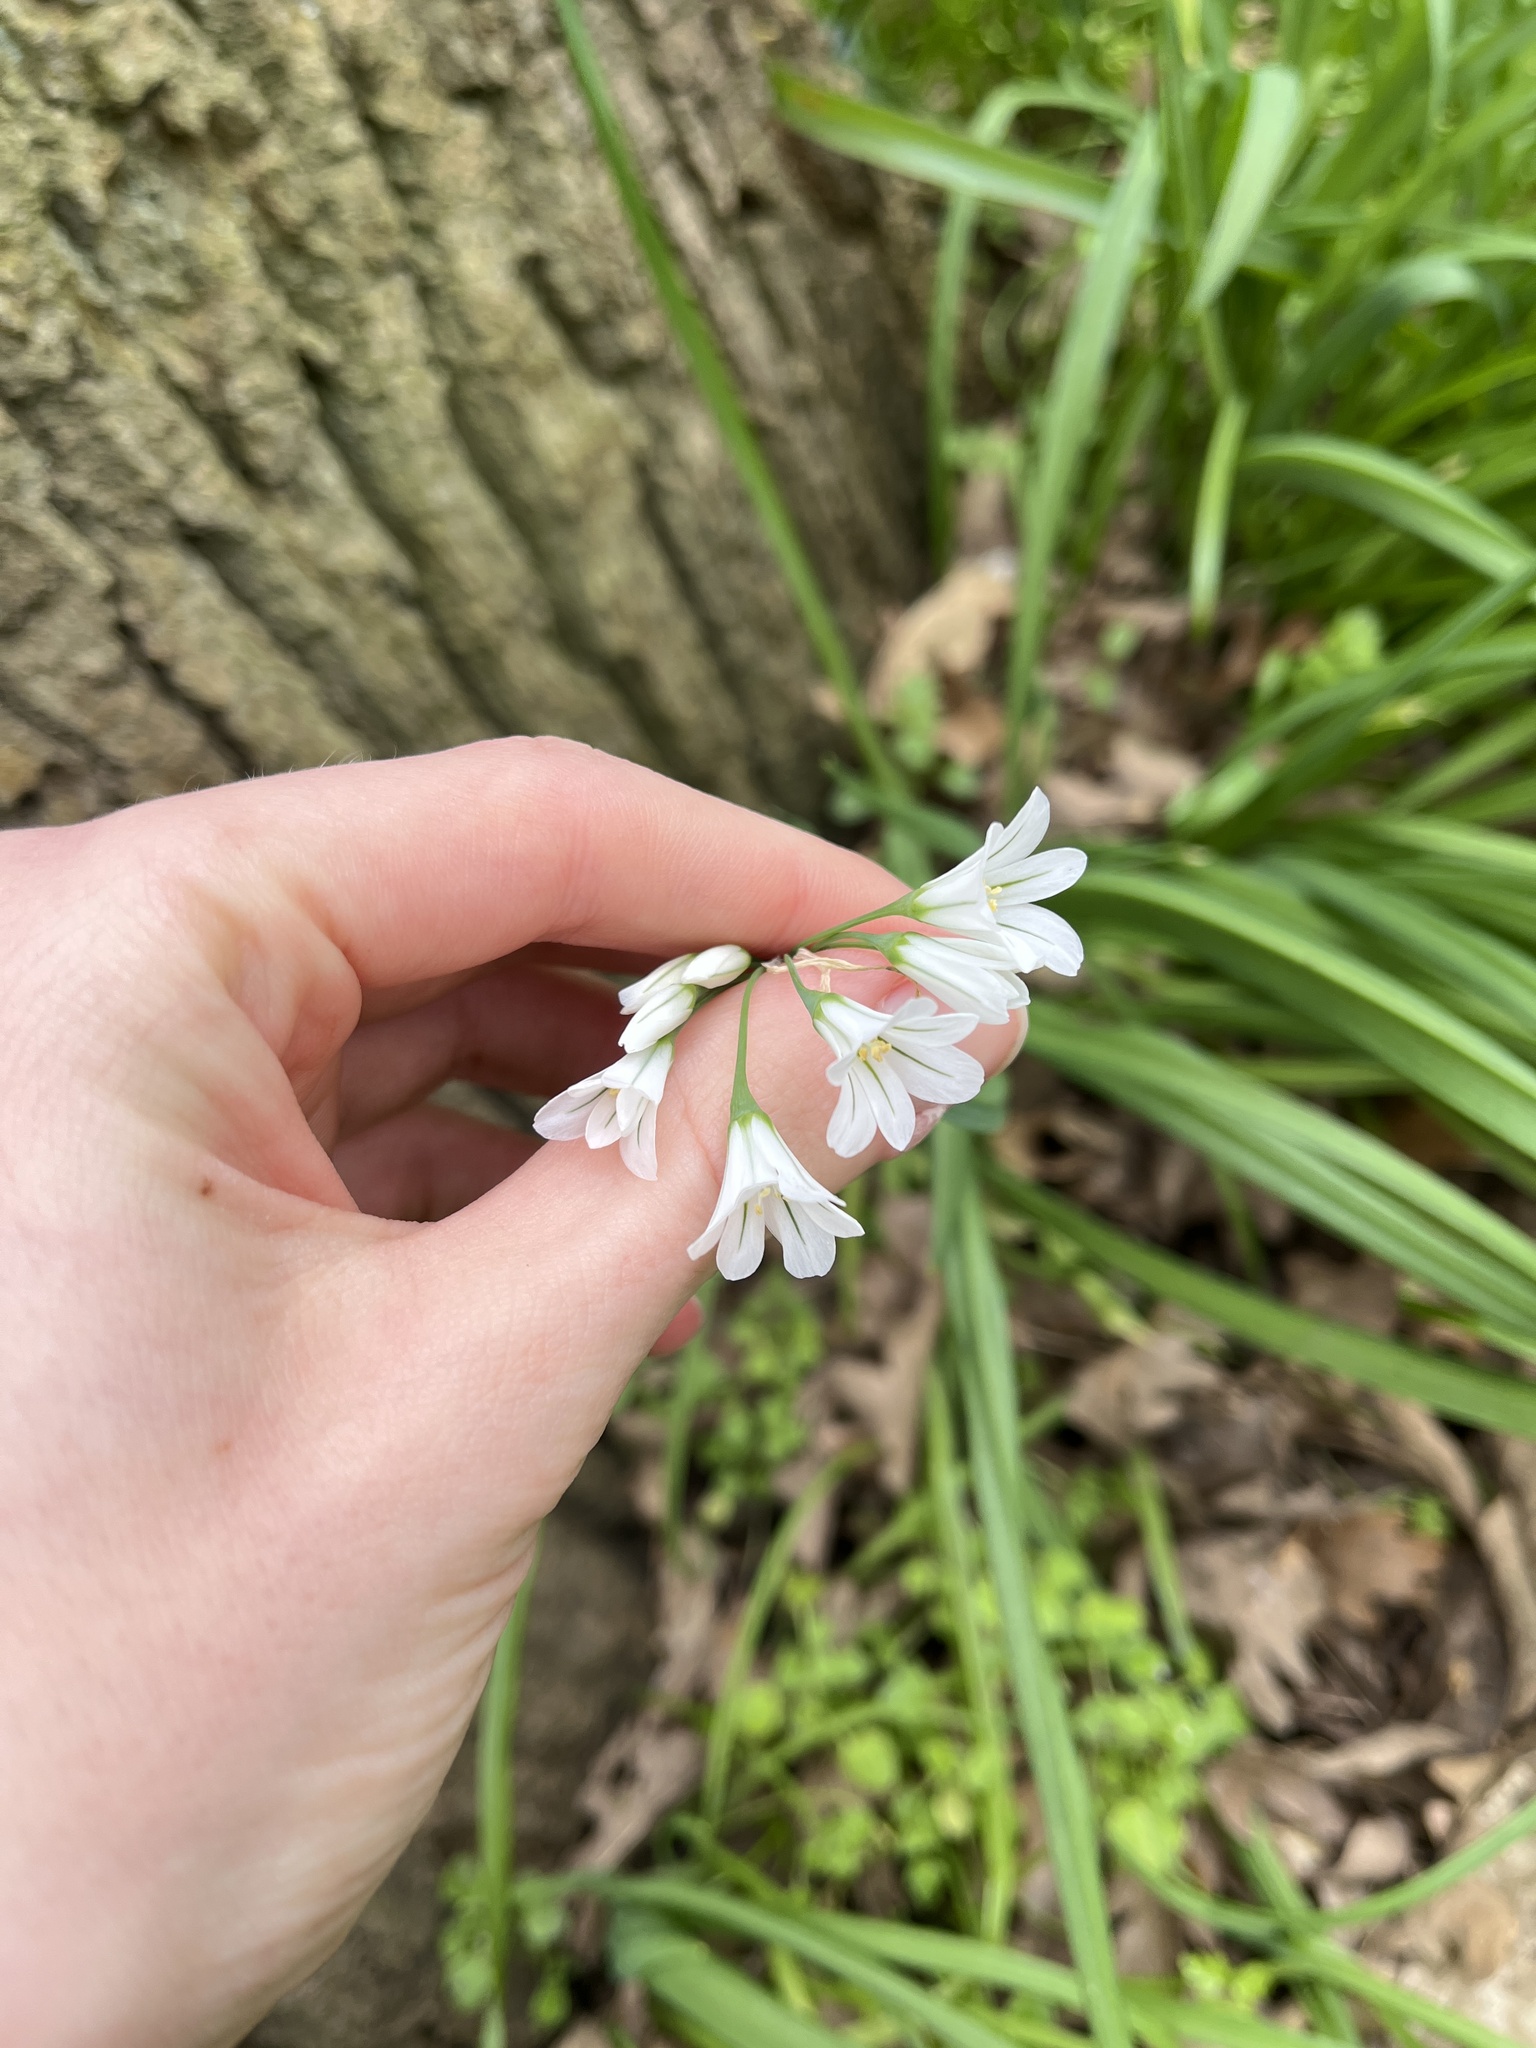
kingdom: Plantae
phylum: Tracheophyta
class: Liliopsida
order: Asparagales
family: Amaryllidaceae
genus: Allium
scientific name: Allium triquetrum
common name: Three-cornered garlic
